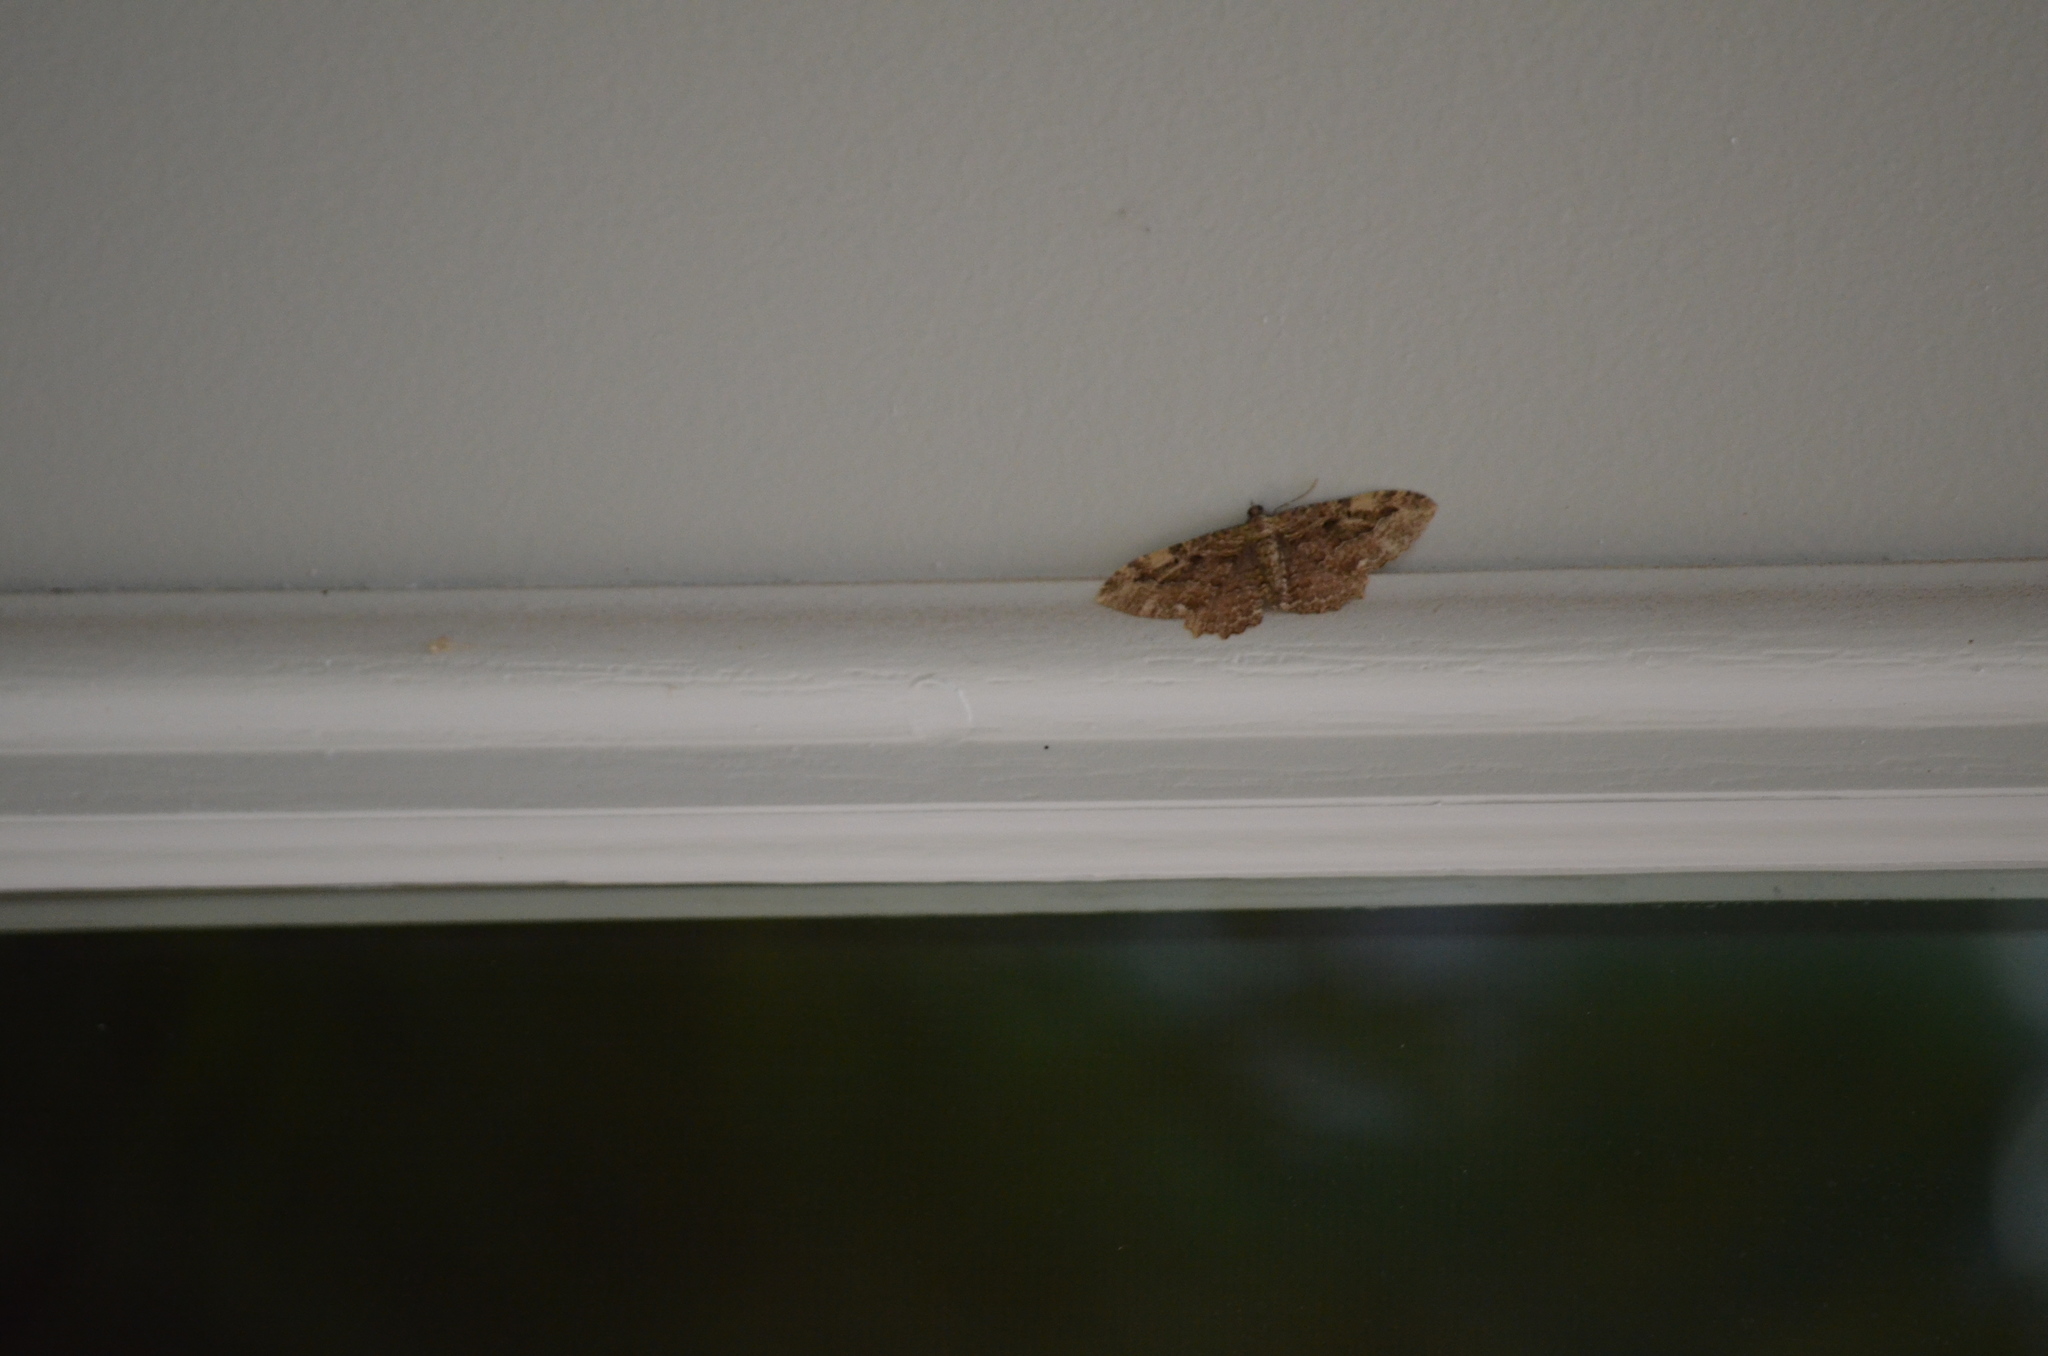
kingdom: Animalia
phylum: Arthropoda
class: Insecta
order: Lepidoptera
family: Geometridae
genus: Rheumaptera
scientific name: Rheumaptera
